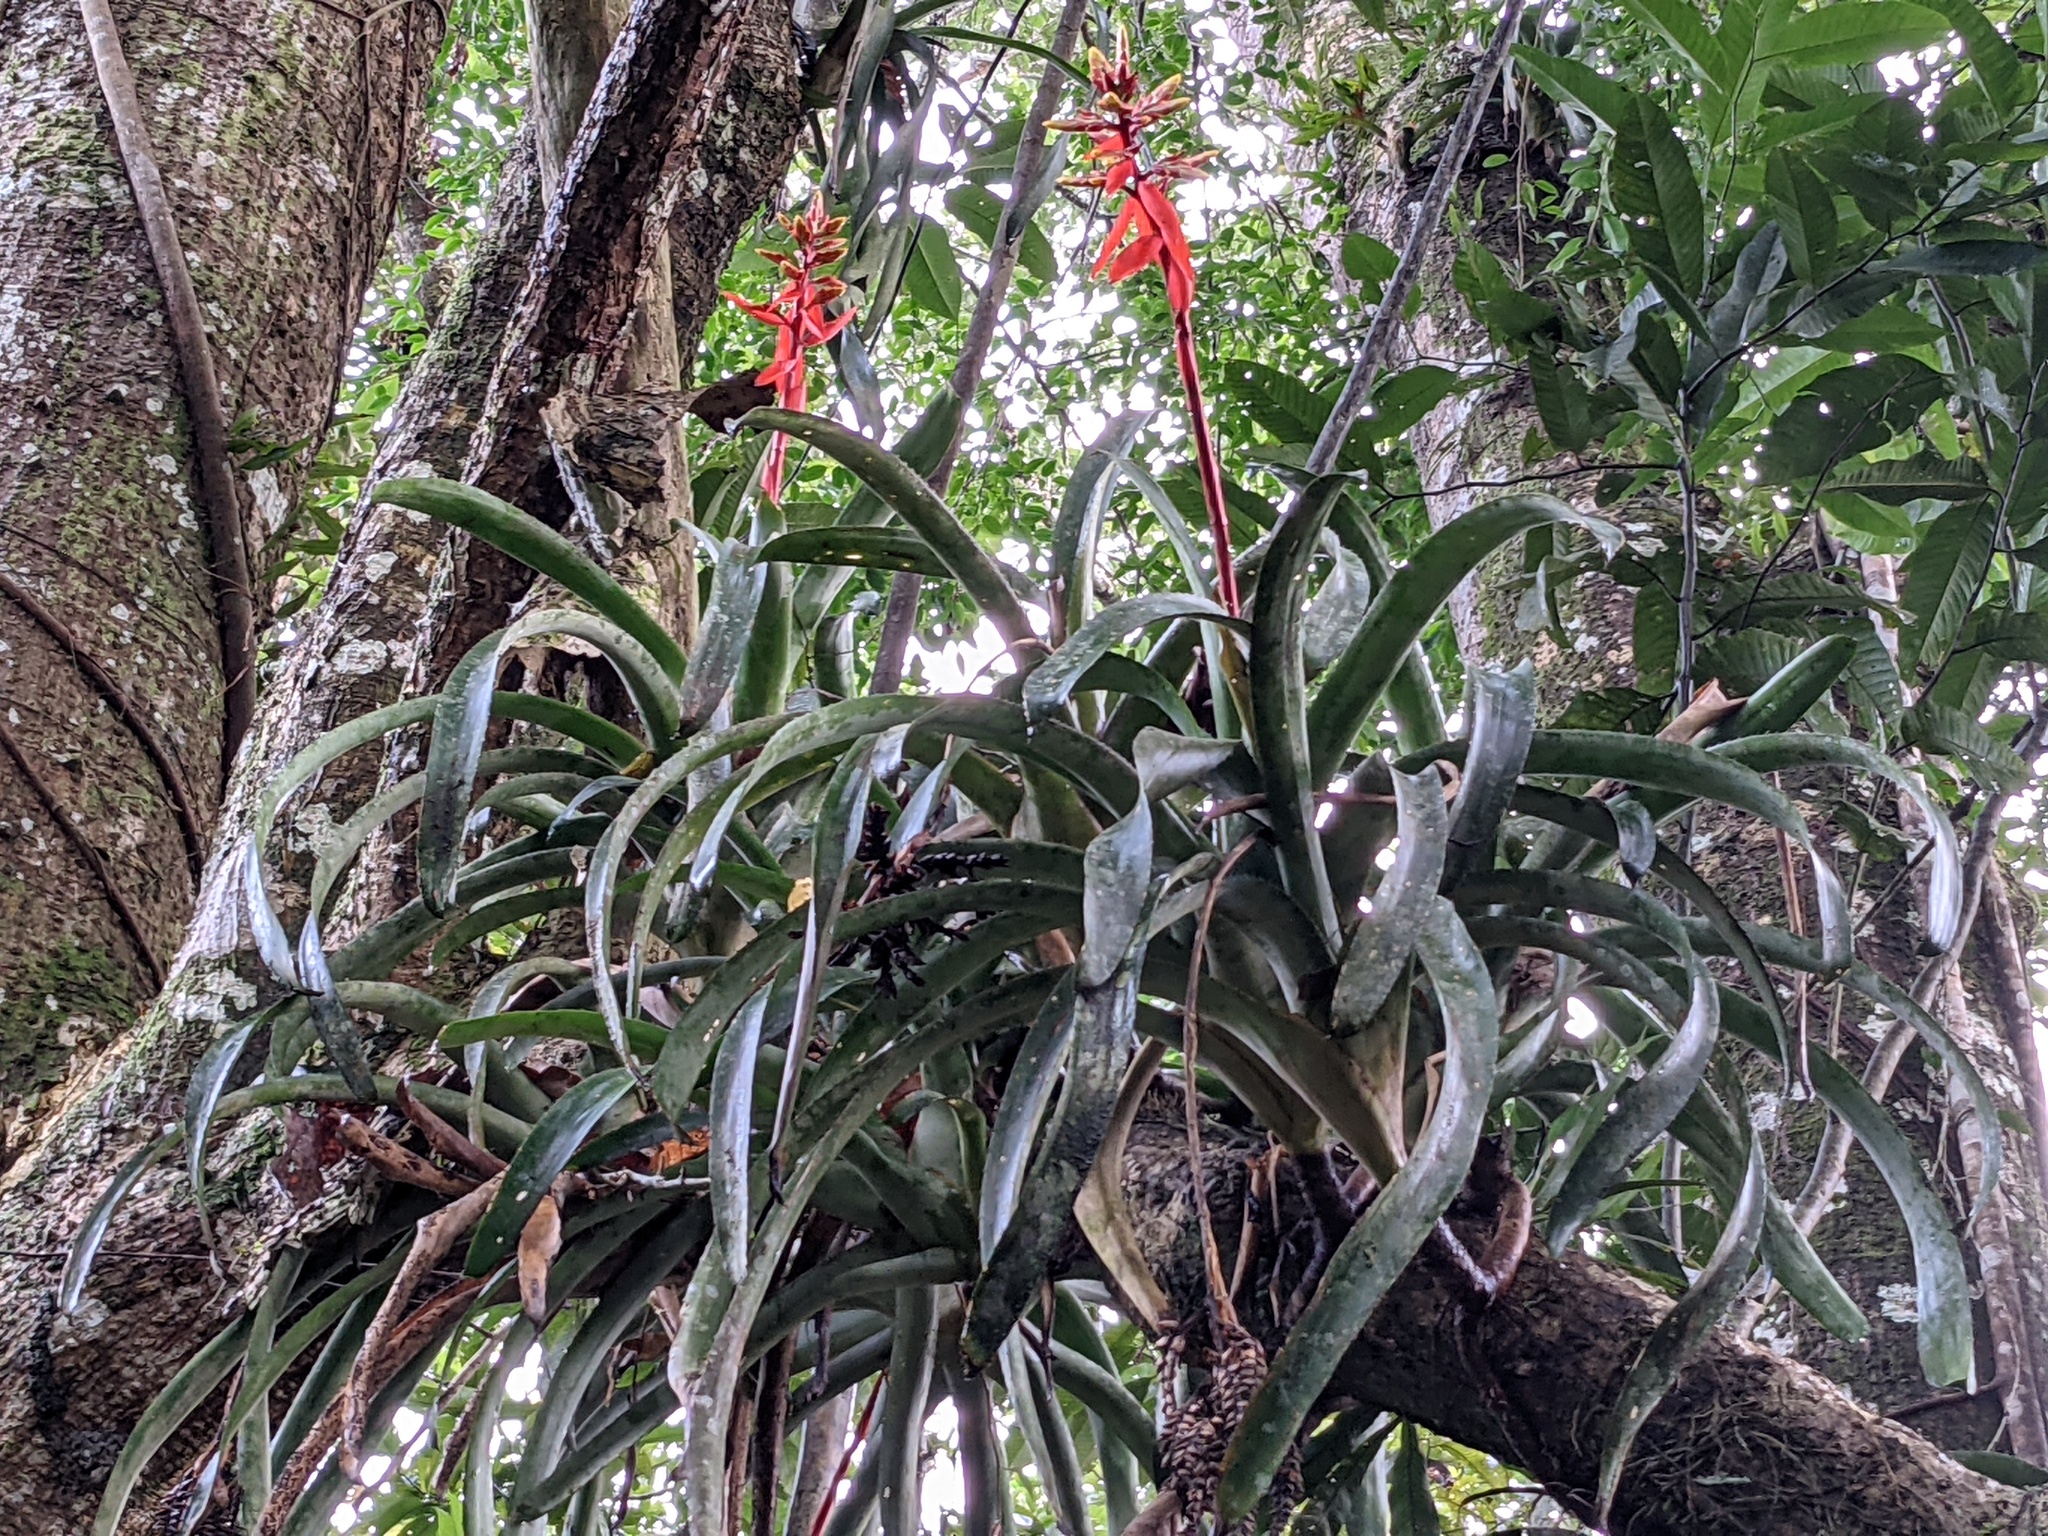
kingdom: Plantae
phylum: Tracheophyta
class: Liliopsida
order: Poales
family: Bromeliaceae
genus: Aechmea
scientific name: Aechmea chantinii
